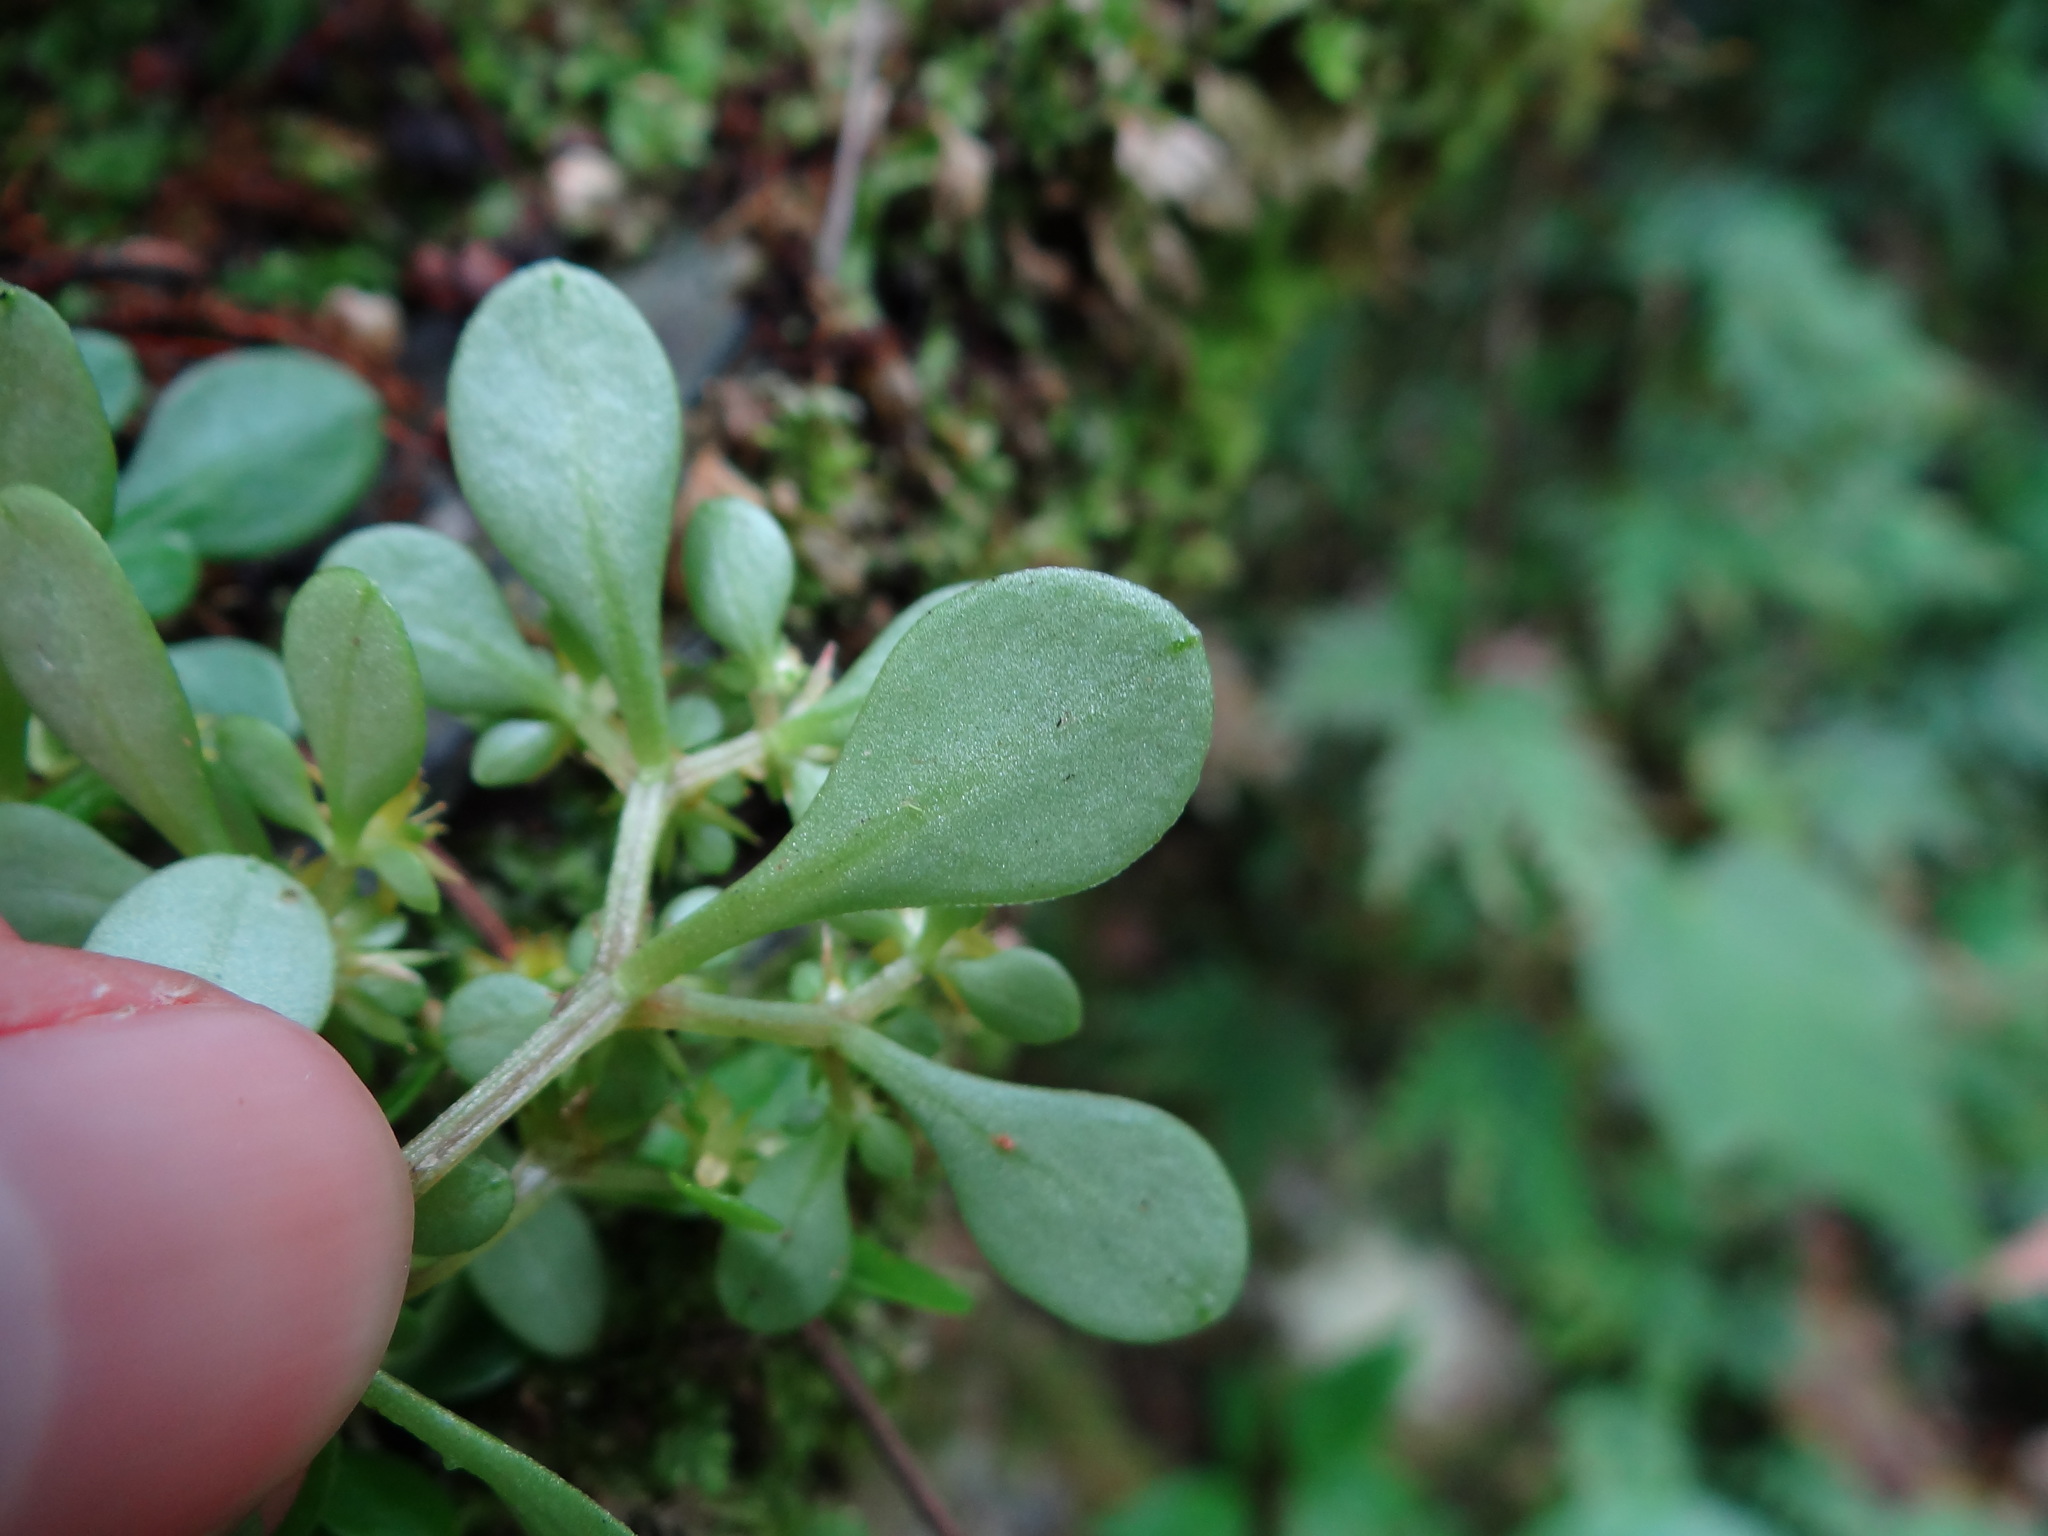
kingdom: Plantae
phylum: Tracheophyta
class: Magnoliopsida
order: Saxifragales
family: Crassulaceae
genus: Sedum
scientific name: Sedum actinocarpum
